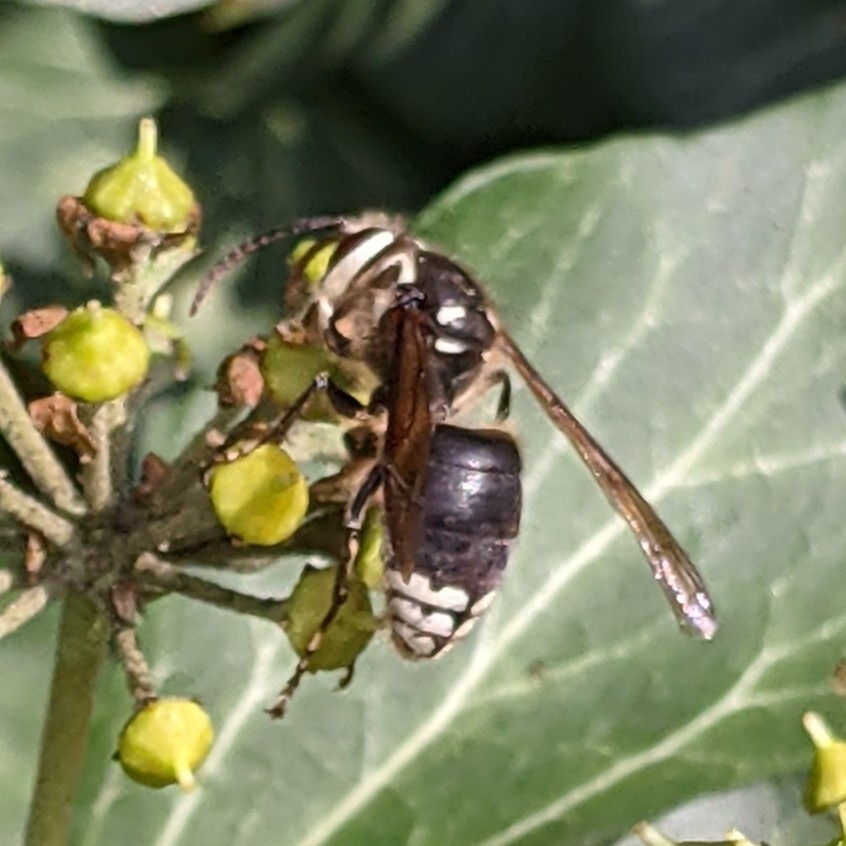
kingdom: Animalia
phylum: Arthropoda
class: Insecta
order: Hymenoptera
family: Vespidae
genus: Dolichovespula
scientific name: Dolichovespula maculata
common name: Bald-faced hornet
